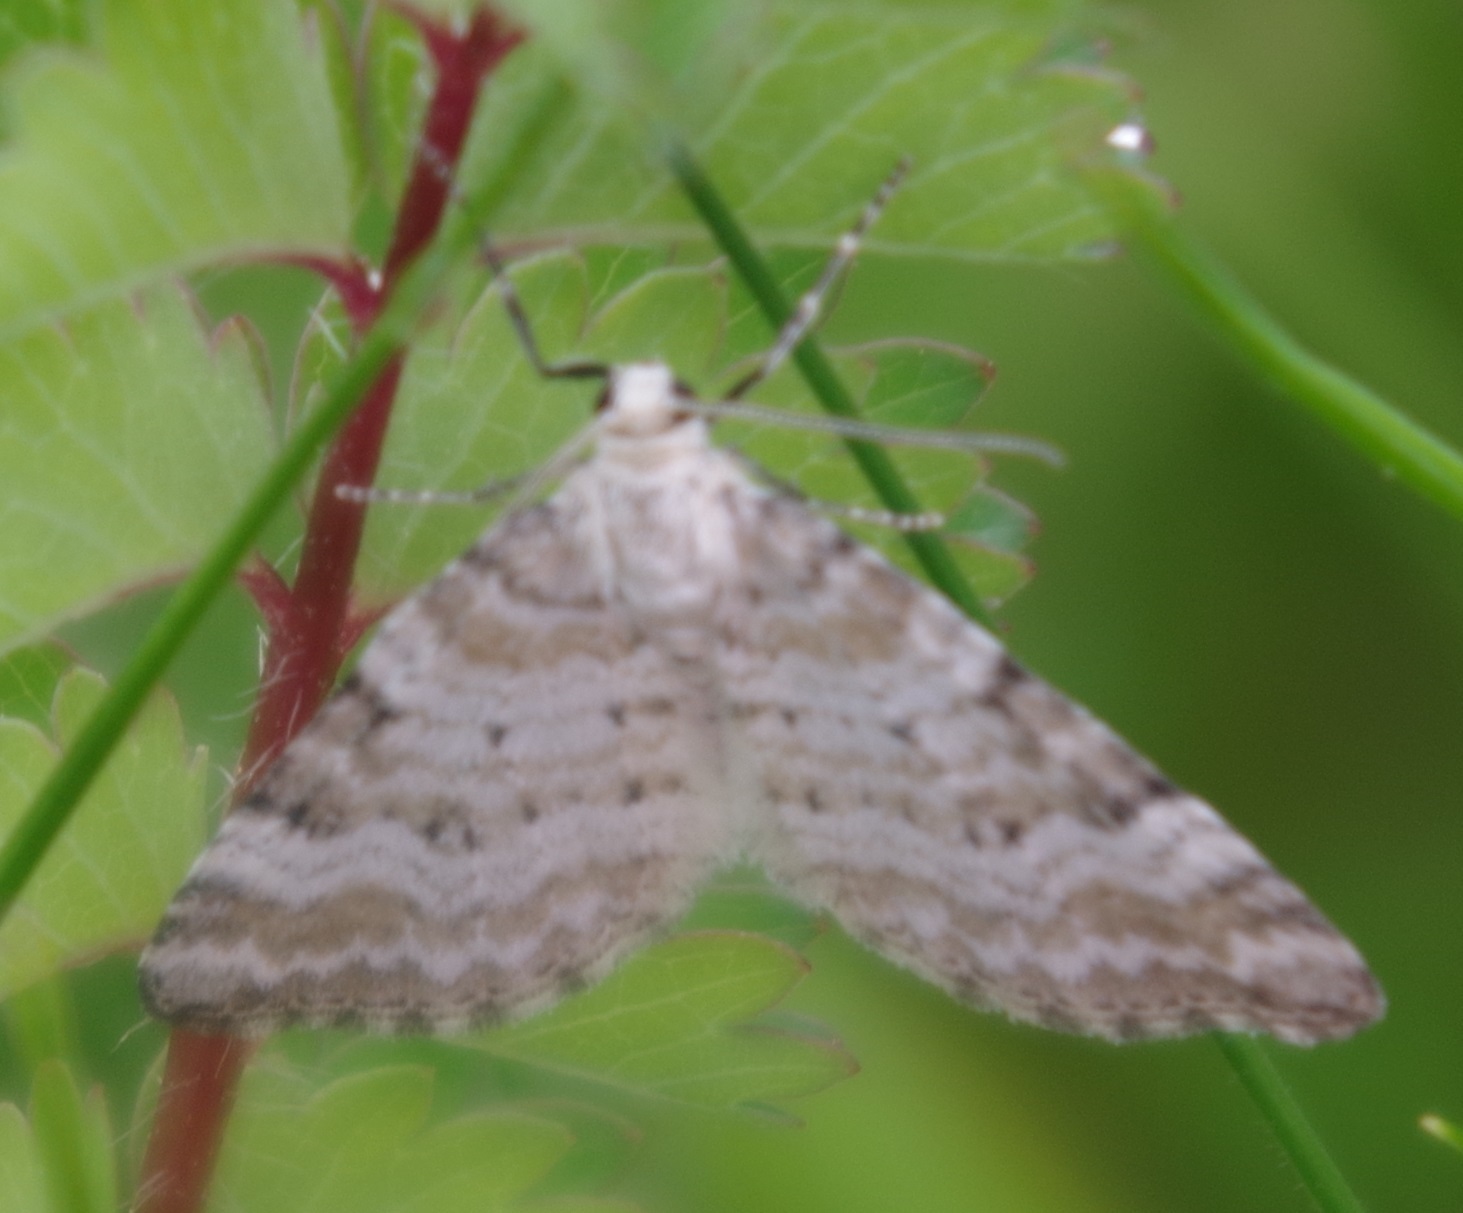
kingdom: Animalia
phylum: Arthropoda
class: Insecta
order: Lepidoptera
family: Geometridae
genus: Perizoma
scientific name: Perizoma albulata
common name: Grass rivulet
